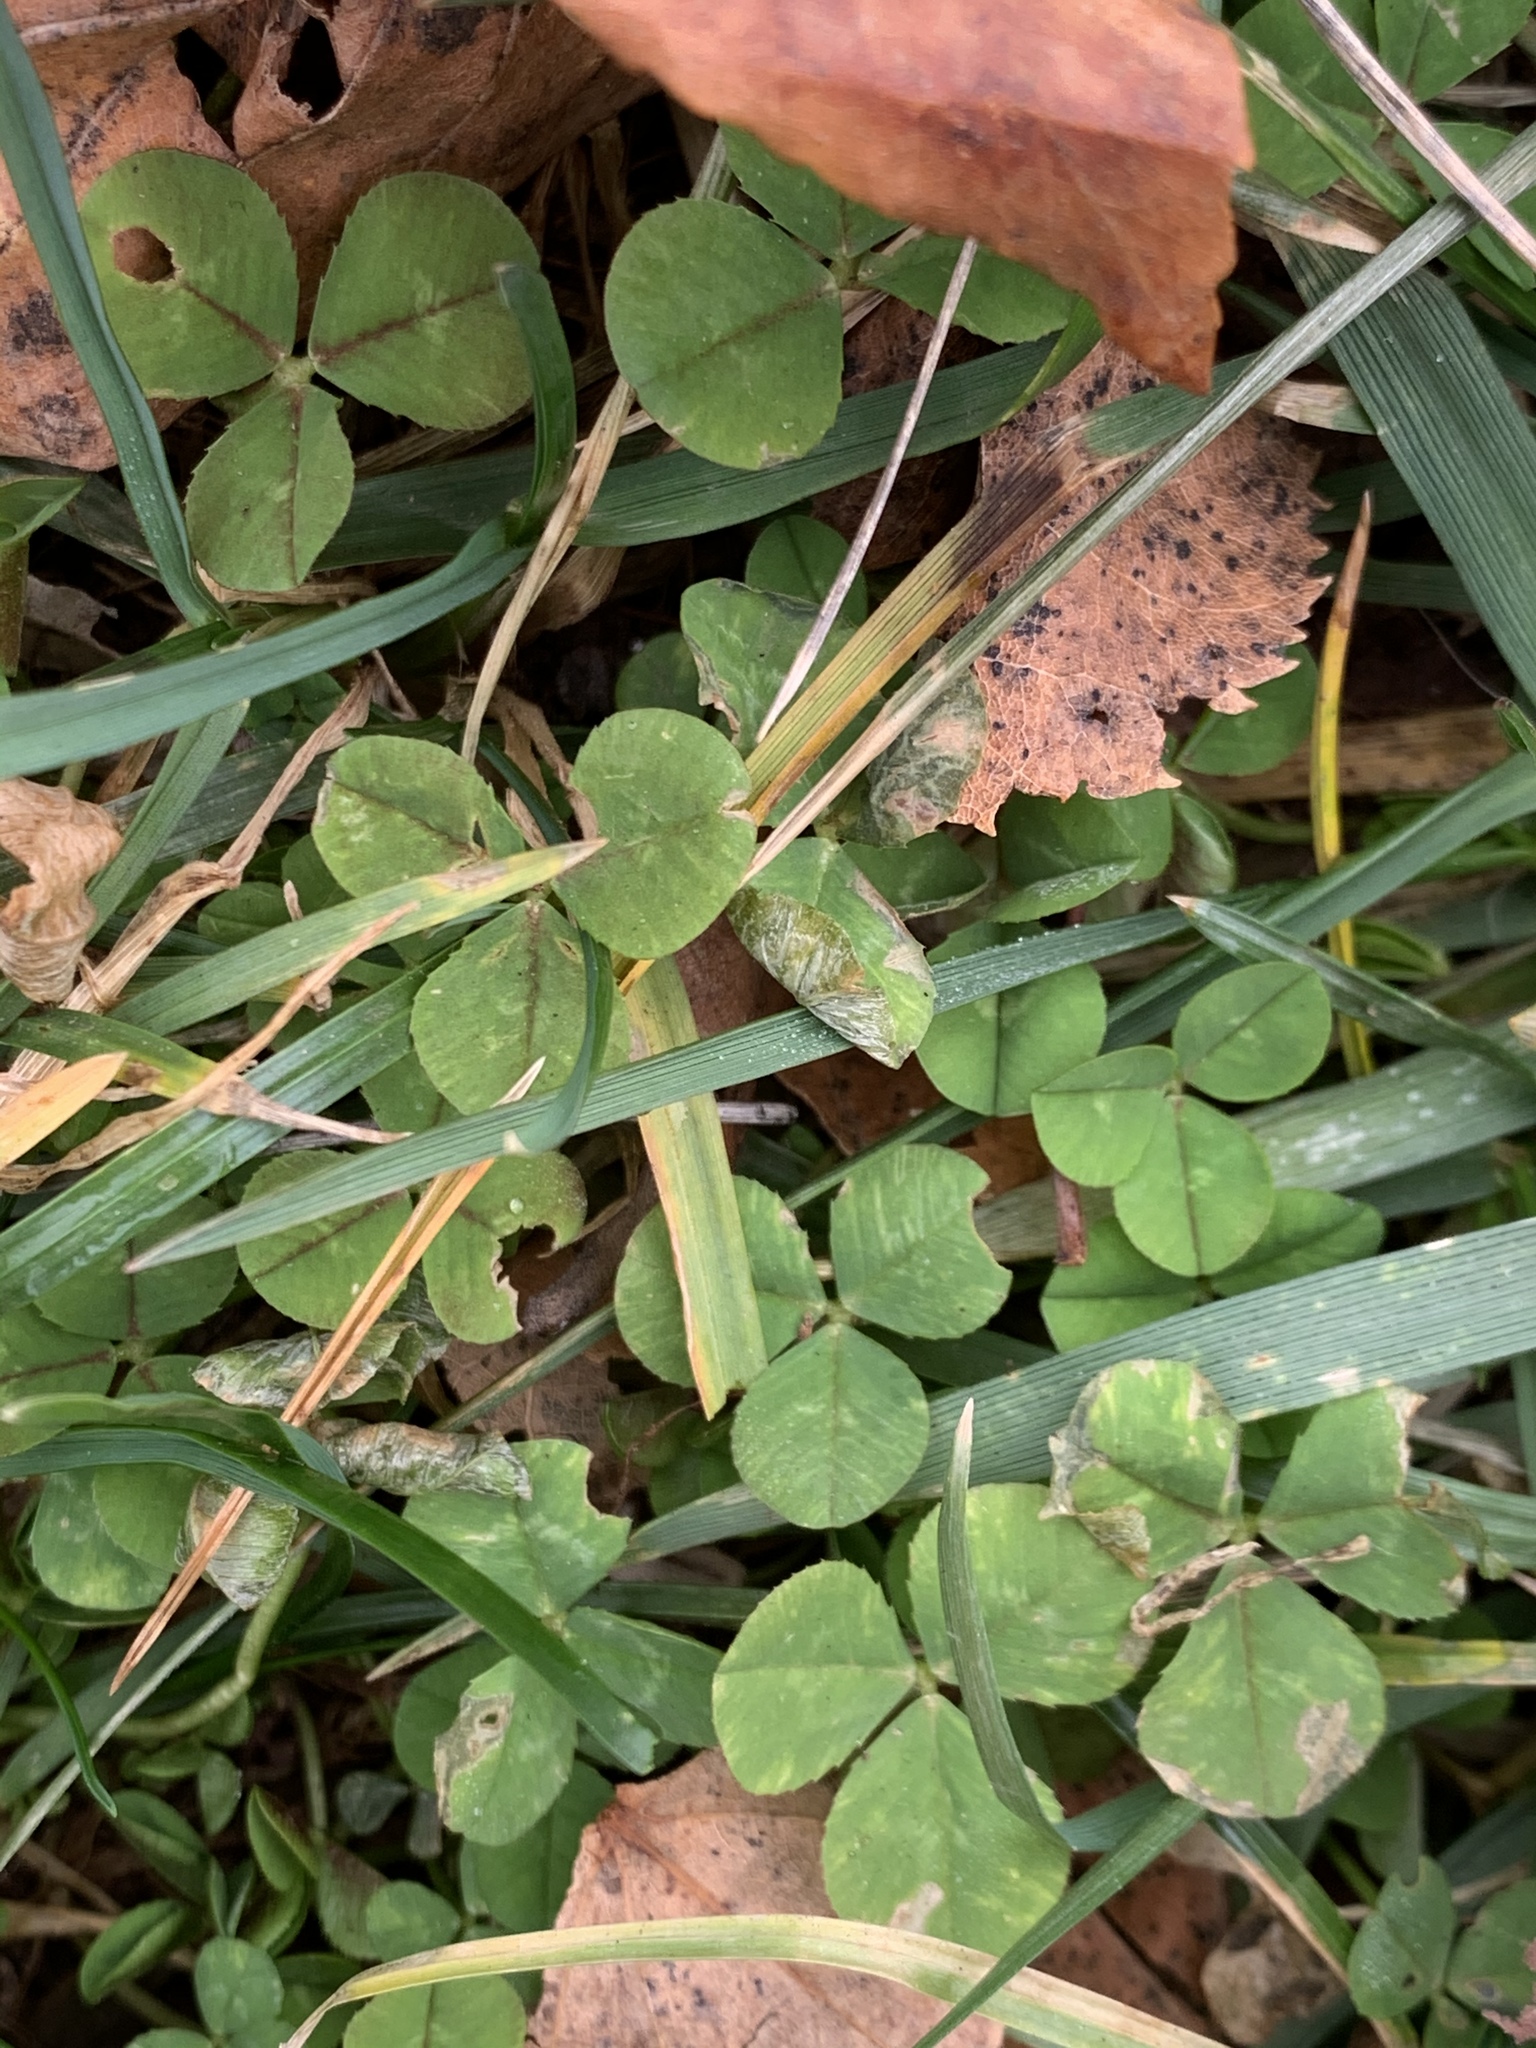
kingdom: Plantae
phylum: Tracheophyta
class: Magnoliopsida
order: Fabales
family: Fabaceae
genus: Trifolium
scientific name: Trifolium repens
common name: White clover
